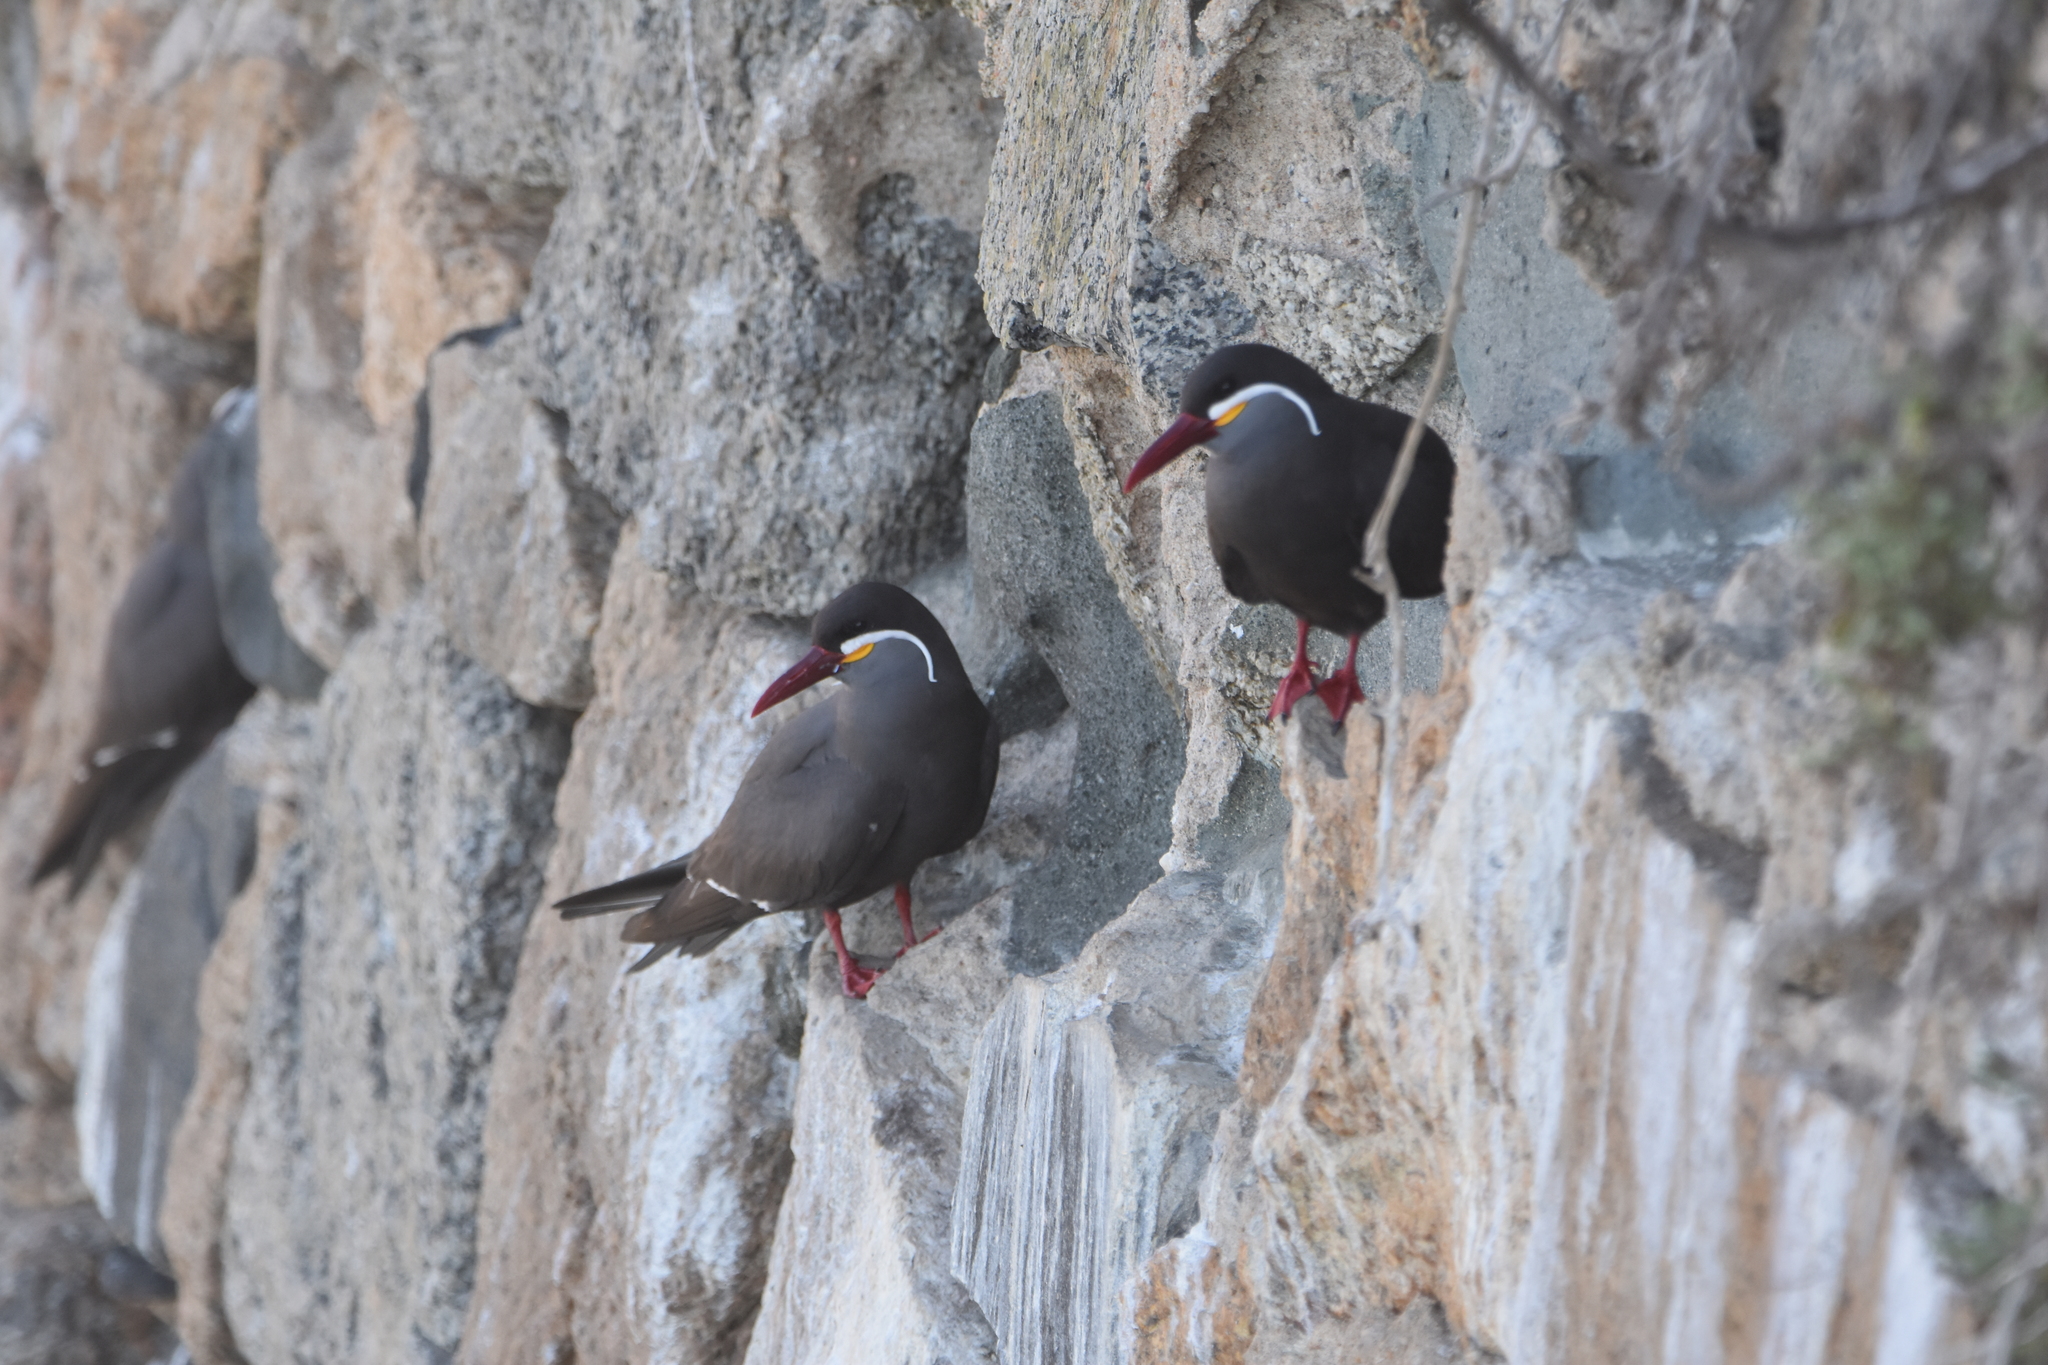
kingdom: Animalia
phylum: Chordata
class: Aves
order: Charadriiformes
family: Laridae
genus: Larosterna
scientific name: Larosterna inca
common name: Inca tern
